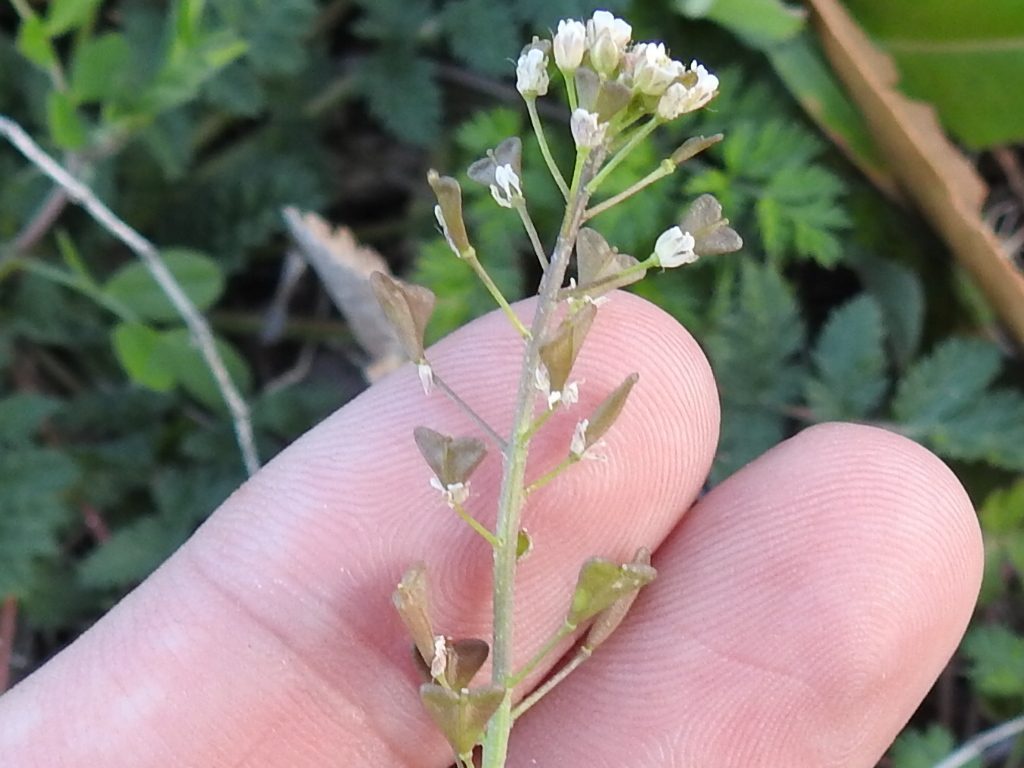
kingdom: Plantae
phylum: Tracheophyta
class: Magnoliopsida
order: Brassicales
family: Brassicaceae
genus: Capsella
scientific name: Capsella bursa-pastoris
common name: Shepherd's purse
